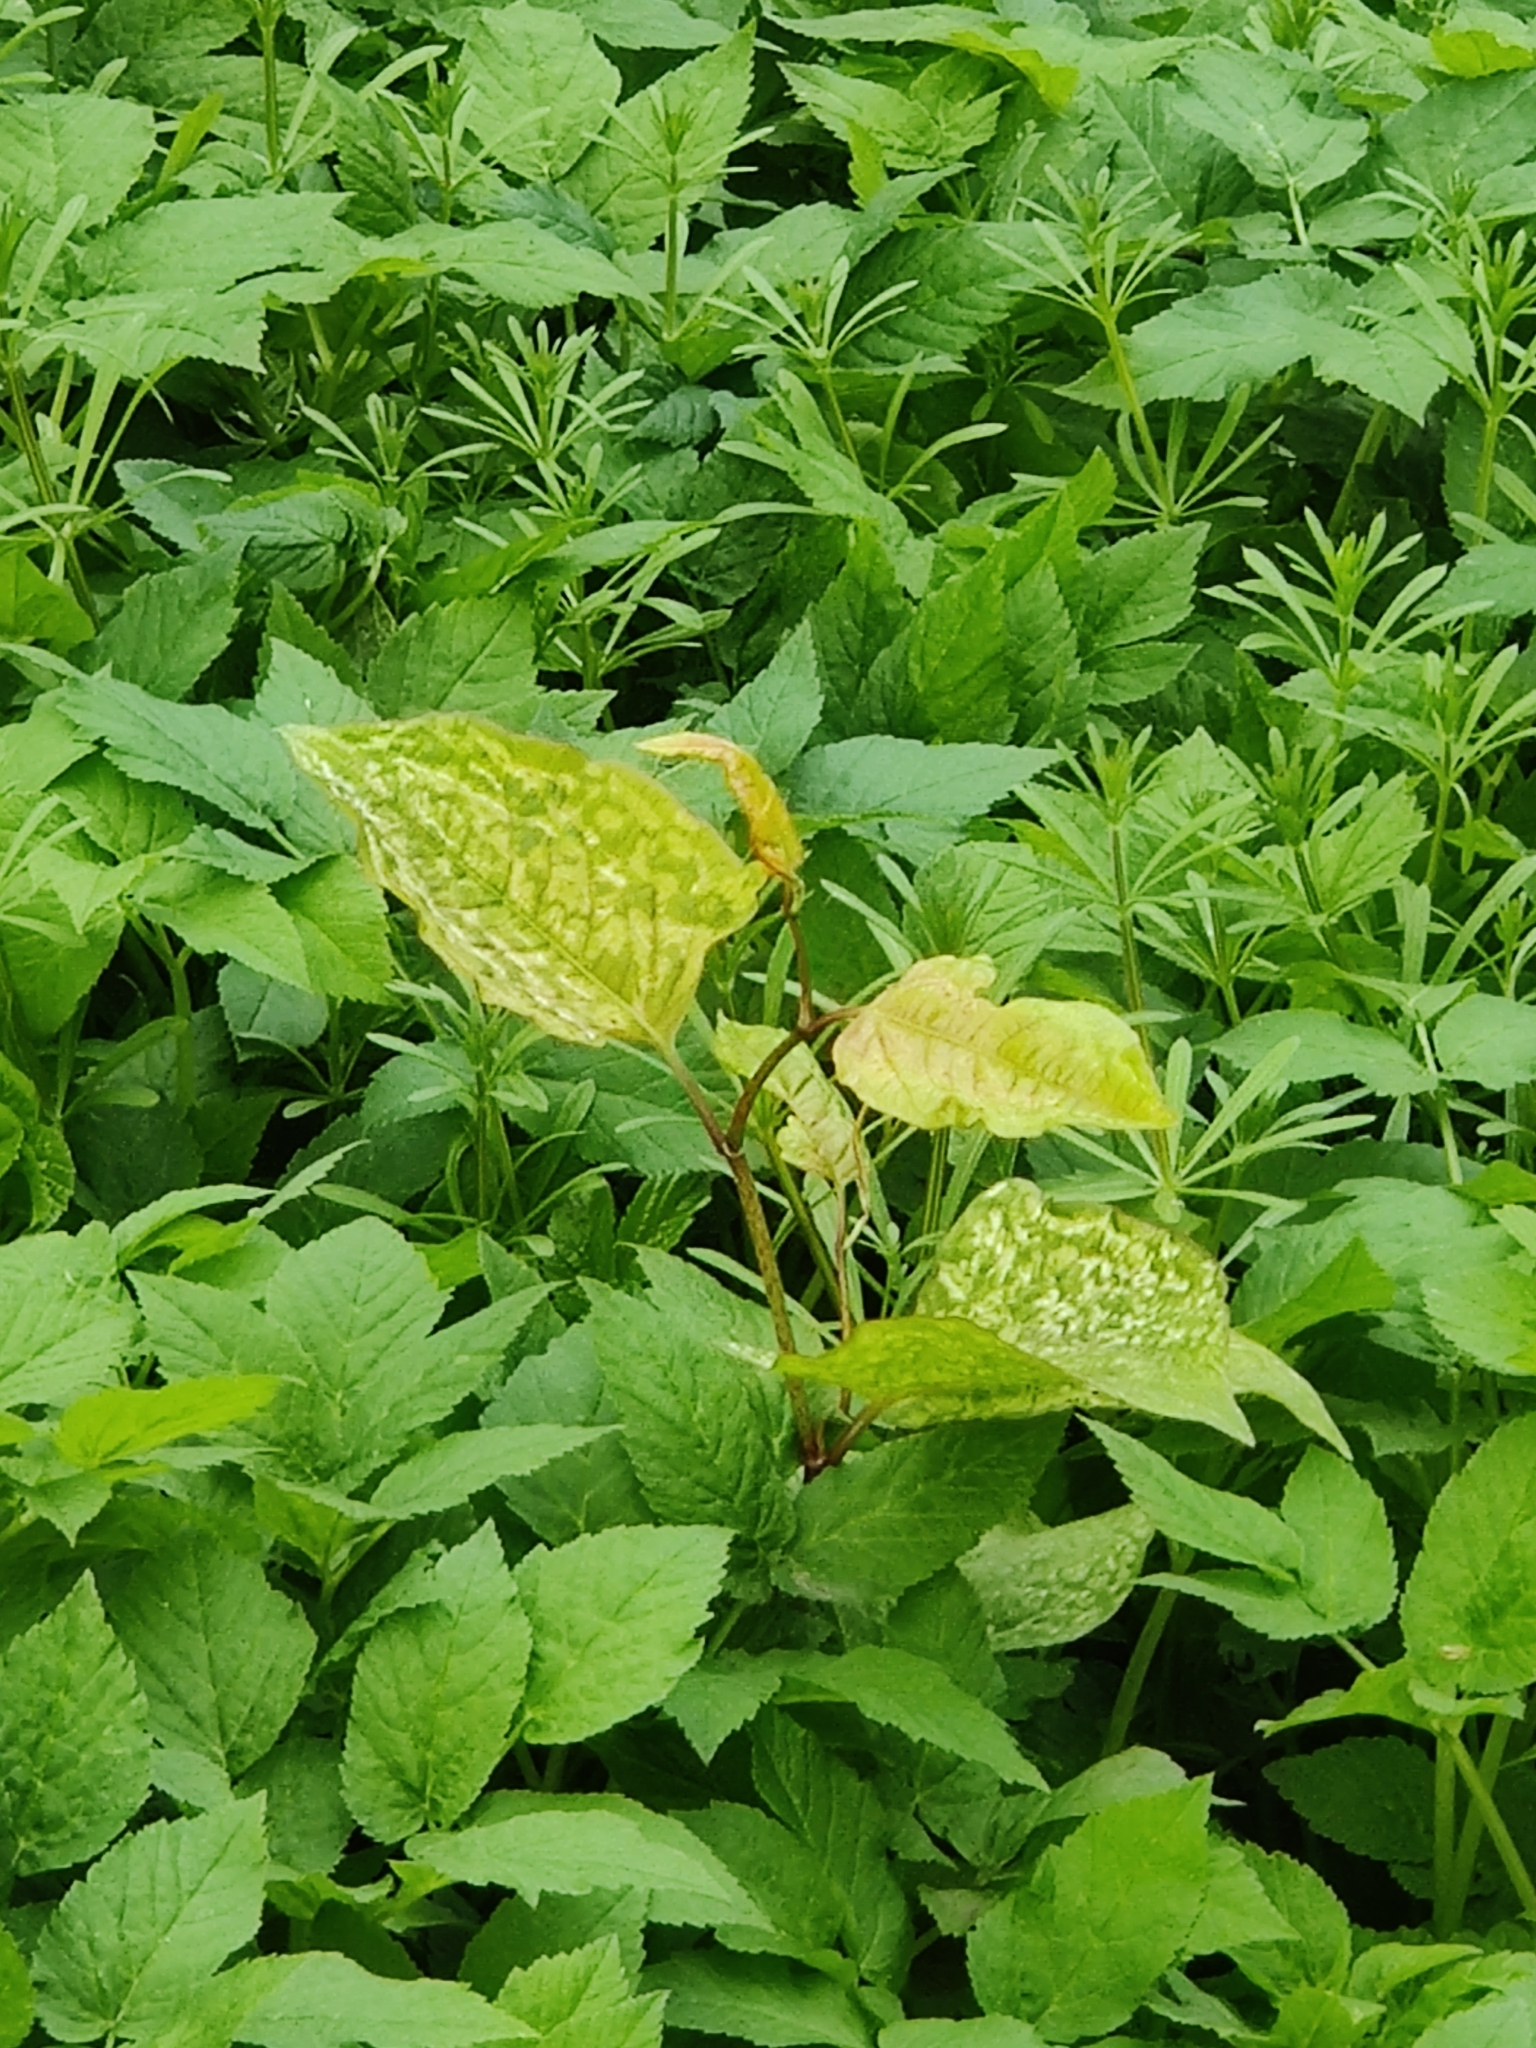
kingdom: Plantae
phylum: Tracheophyta
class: Magnoliopsida
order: Caryophyllales
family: Polygonaceae
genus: Reynoutria
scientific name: Reynoutria japonica
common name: Japanese knotweed
